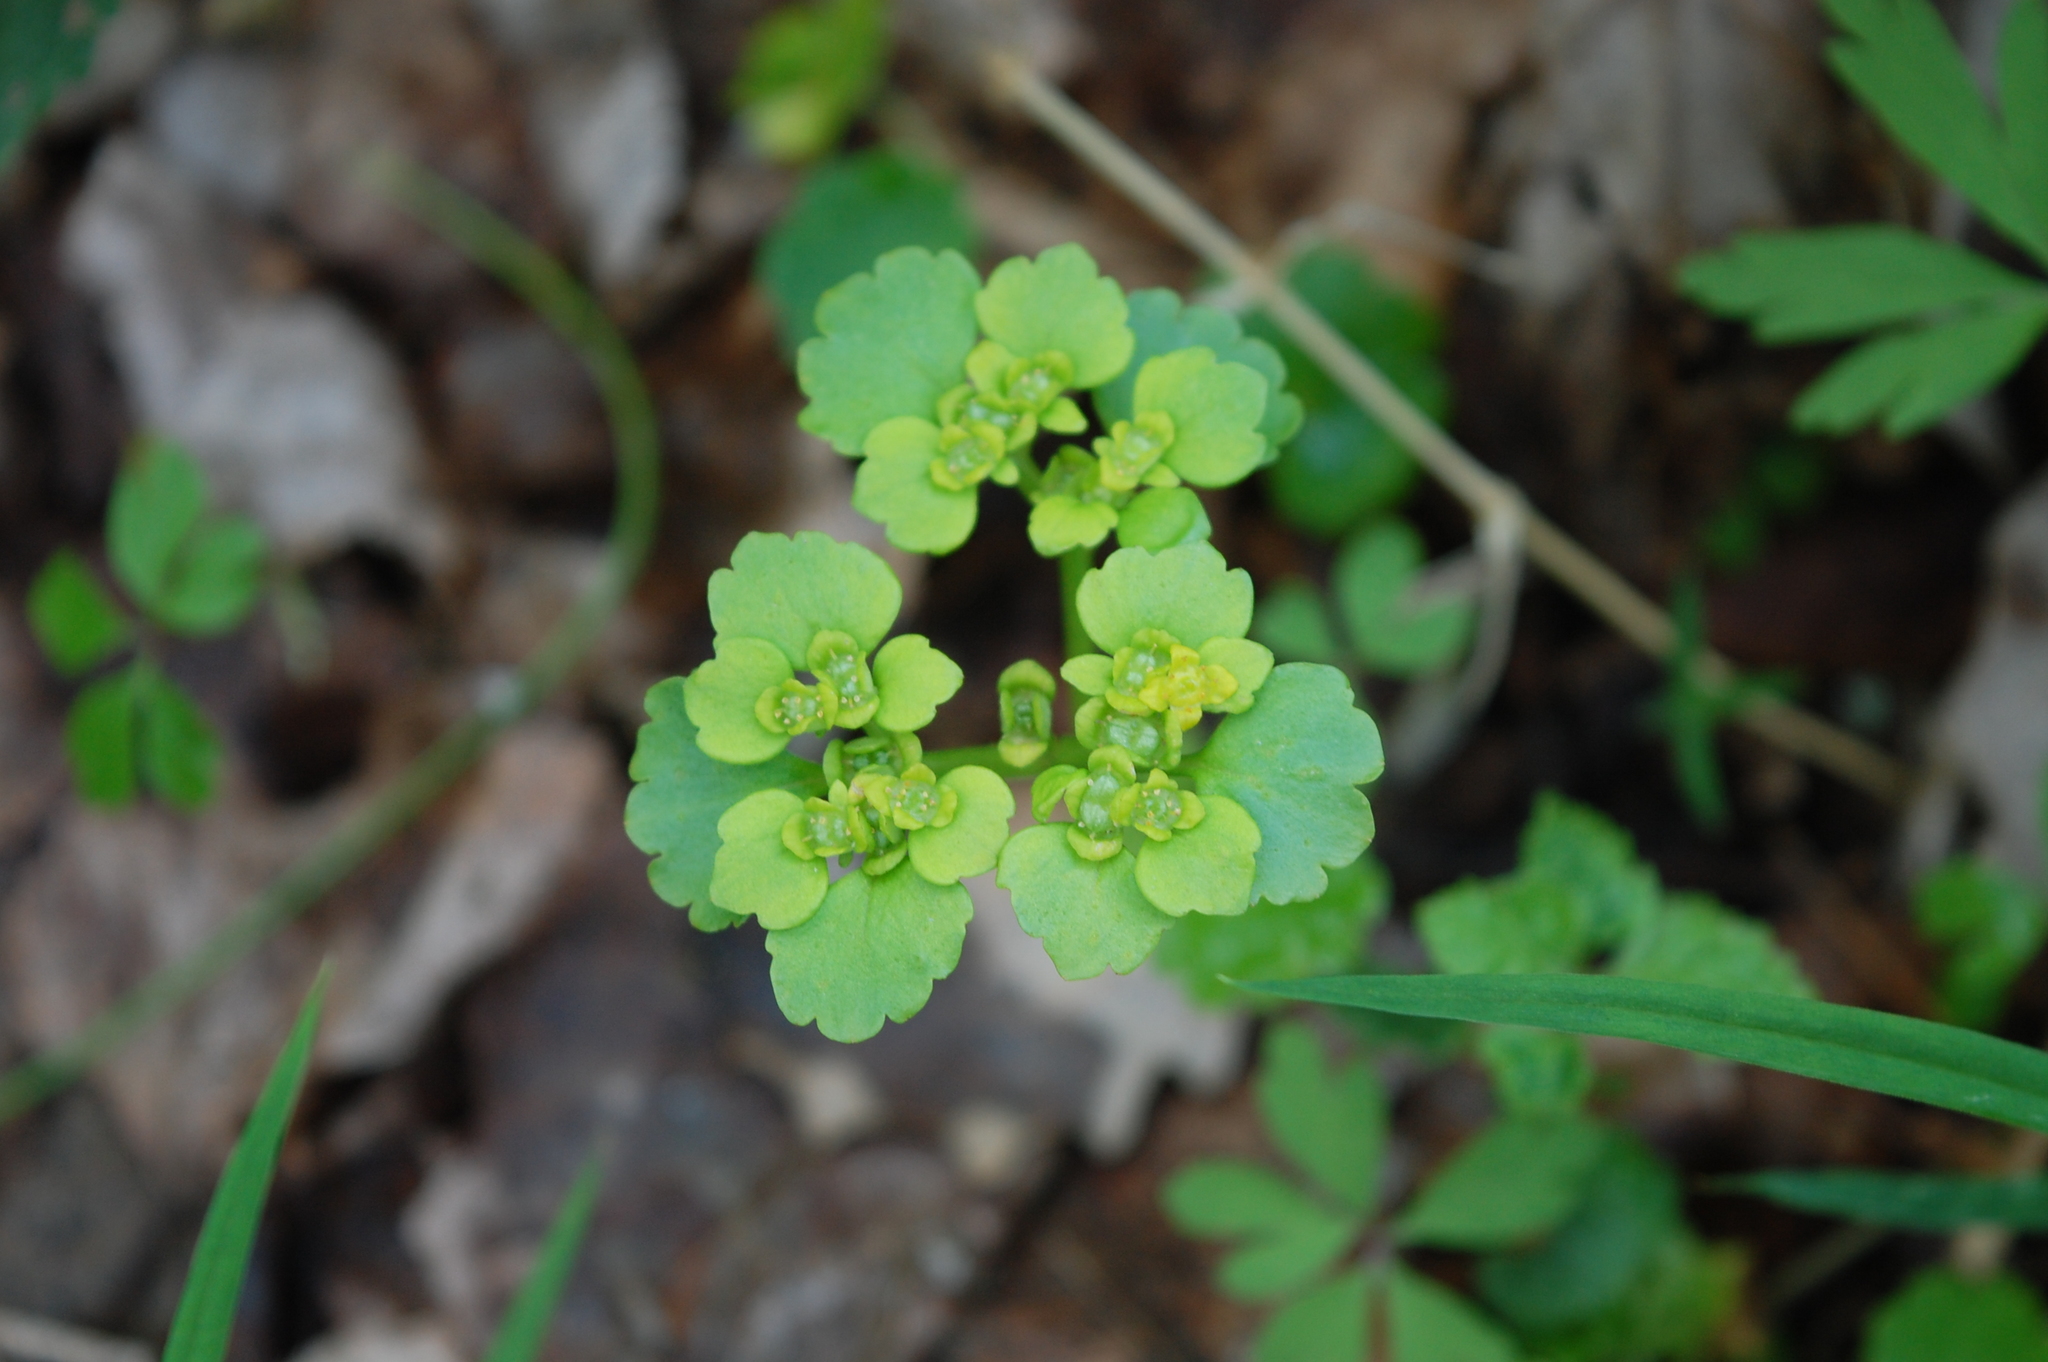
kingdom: Plantae
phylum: Tracheophyta
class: Magnoliopsida
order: Saxifragales
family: Saxifragaceae
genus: Chrysosplenium
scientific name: Chrysosplenium alternifolium
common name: Alternate-leaved golden-saxifrage
